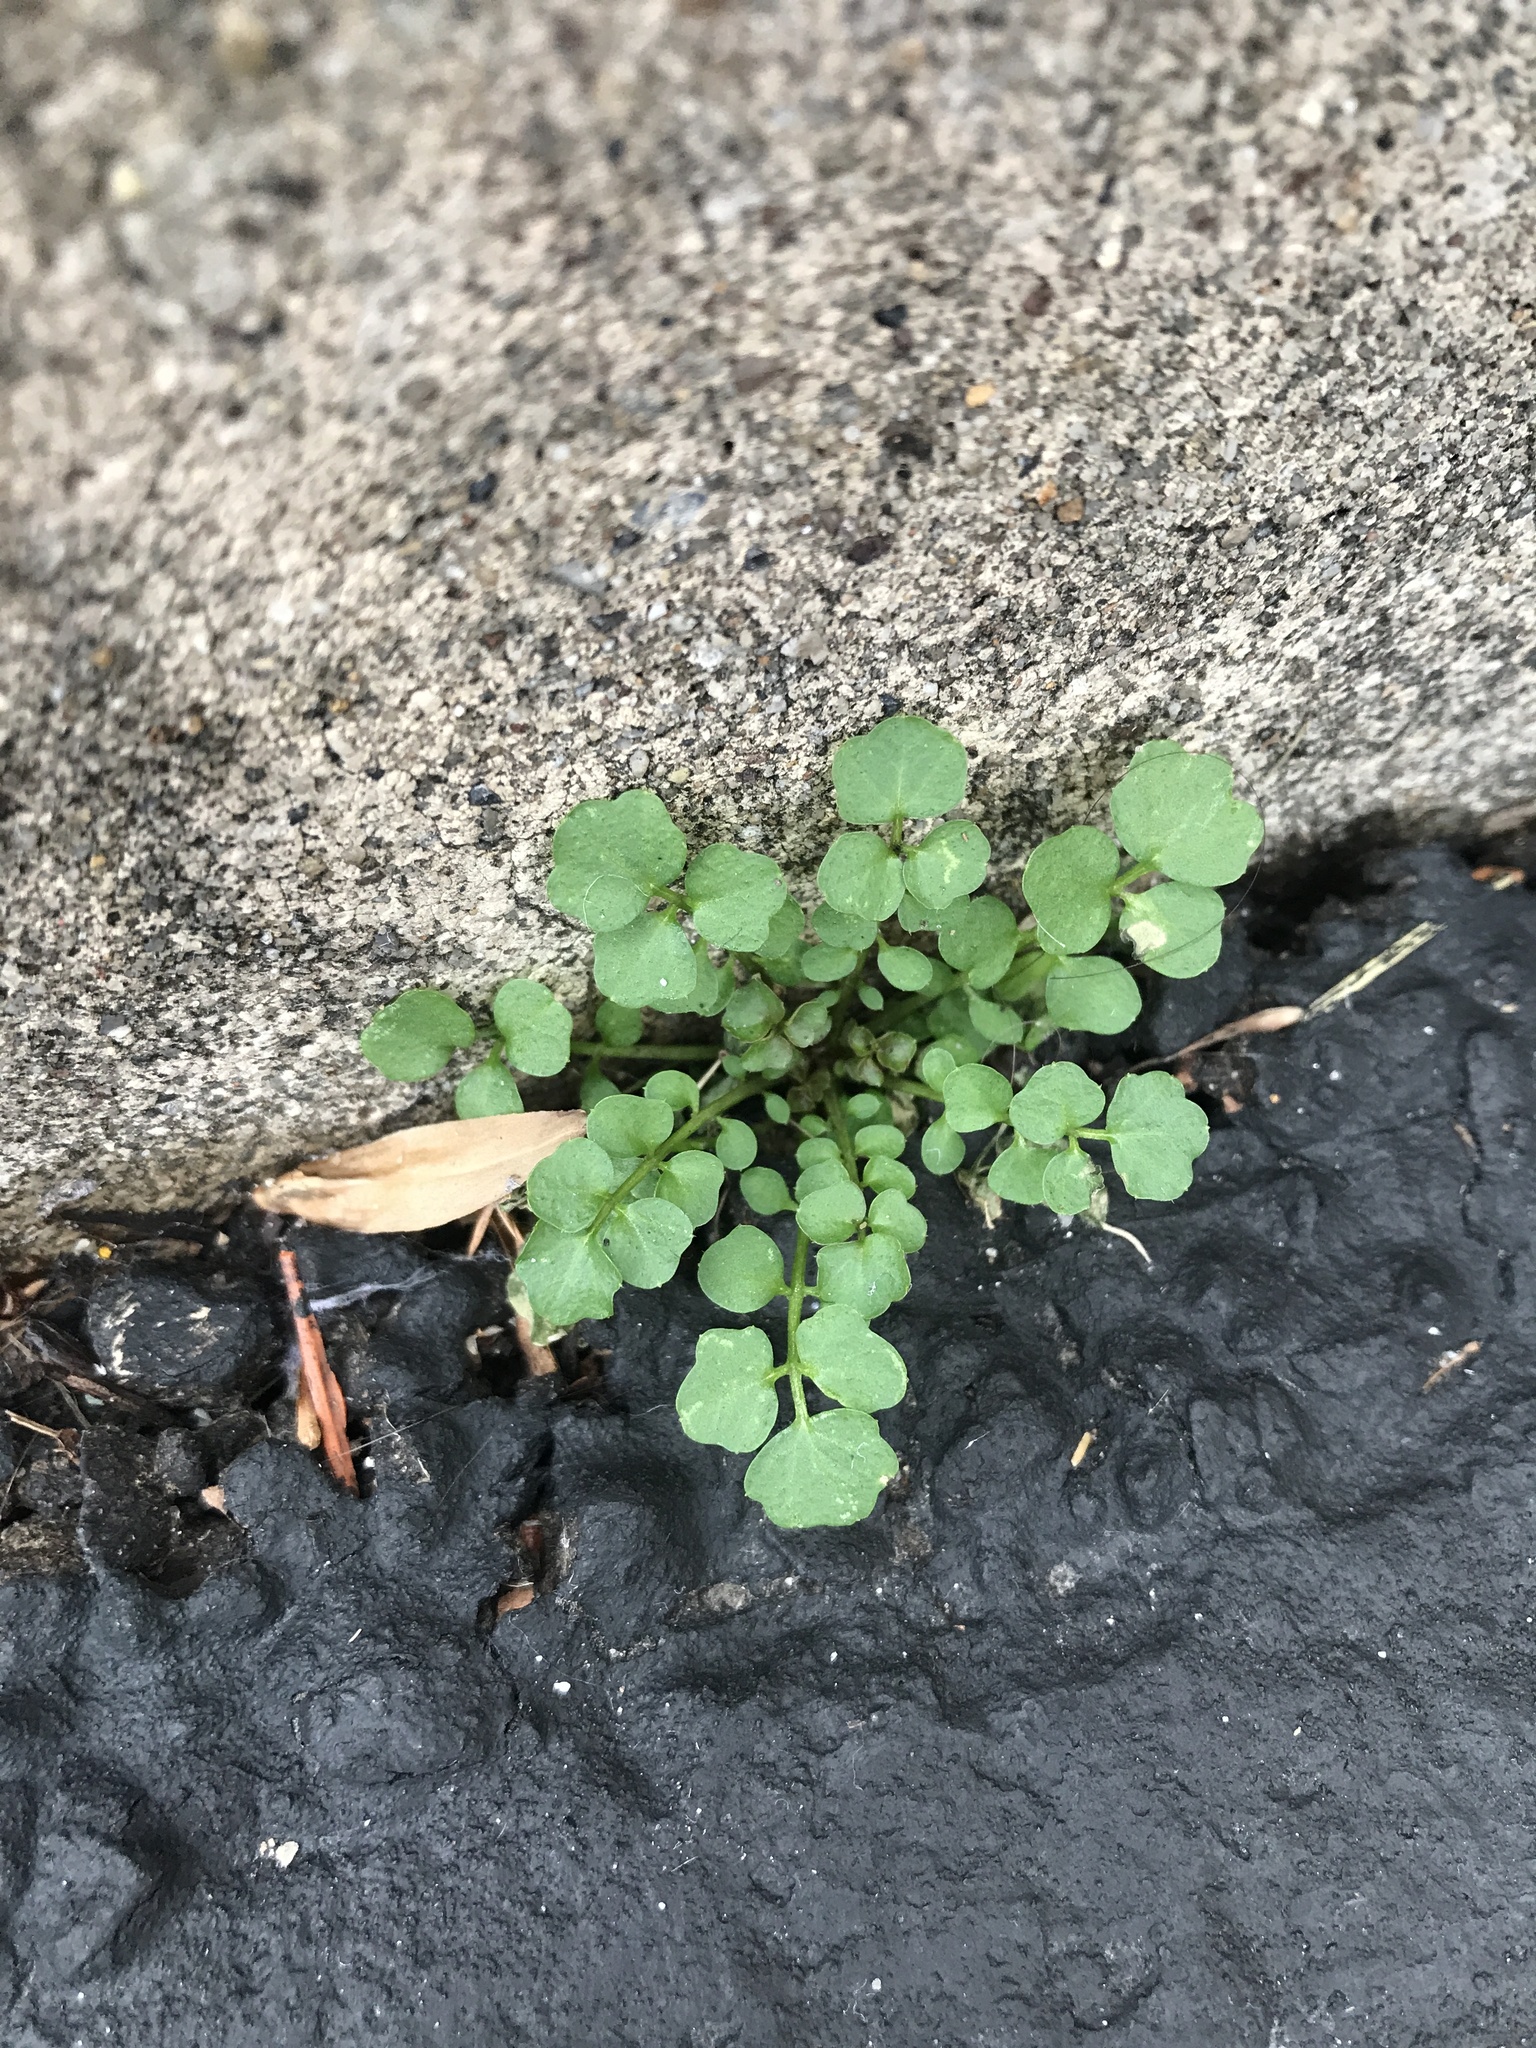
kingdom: Plantae
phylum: Tracheophyta
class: Magnoliopsida
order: Brassicales
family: Brassicaceae
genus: Cardamine
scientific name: Cardamine hirsuta
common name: Hairy bittercress
